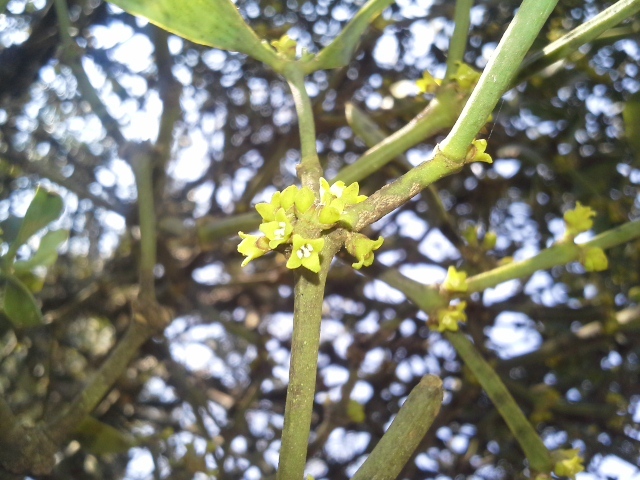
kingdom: Plantae
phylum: Tracheophyta
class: Magnoliopsida
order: Santalales
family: Viscaceae
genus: Viscum
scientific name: Viscum rotundifolium
